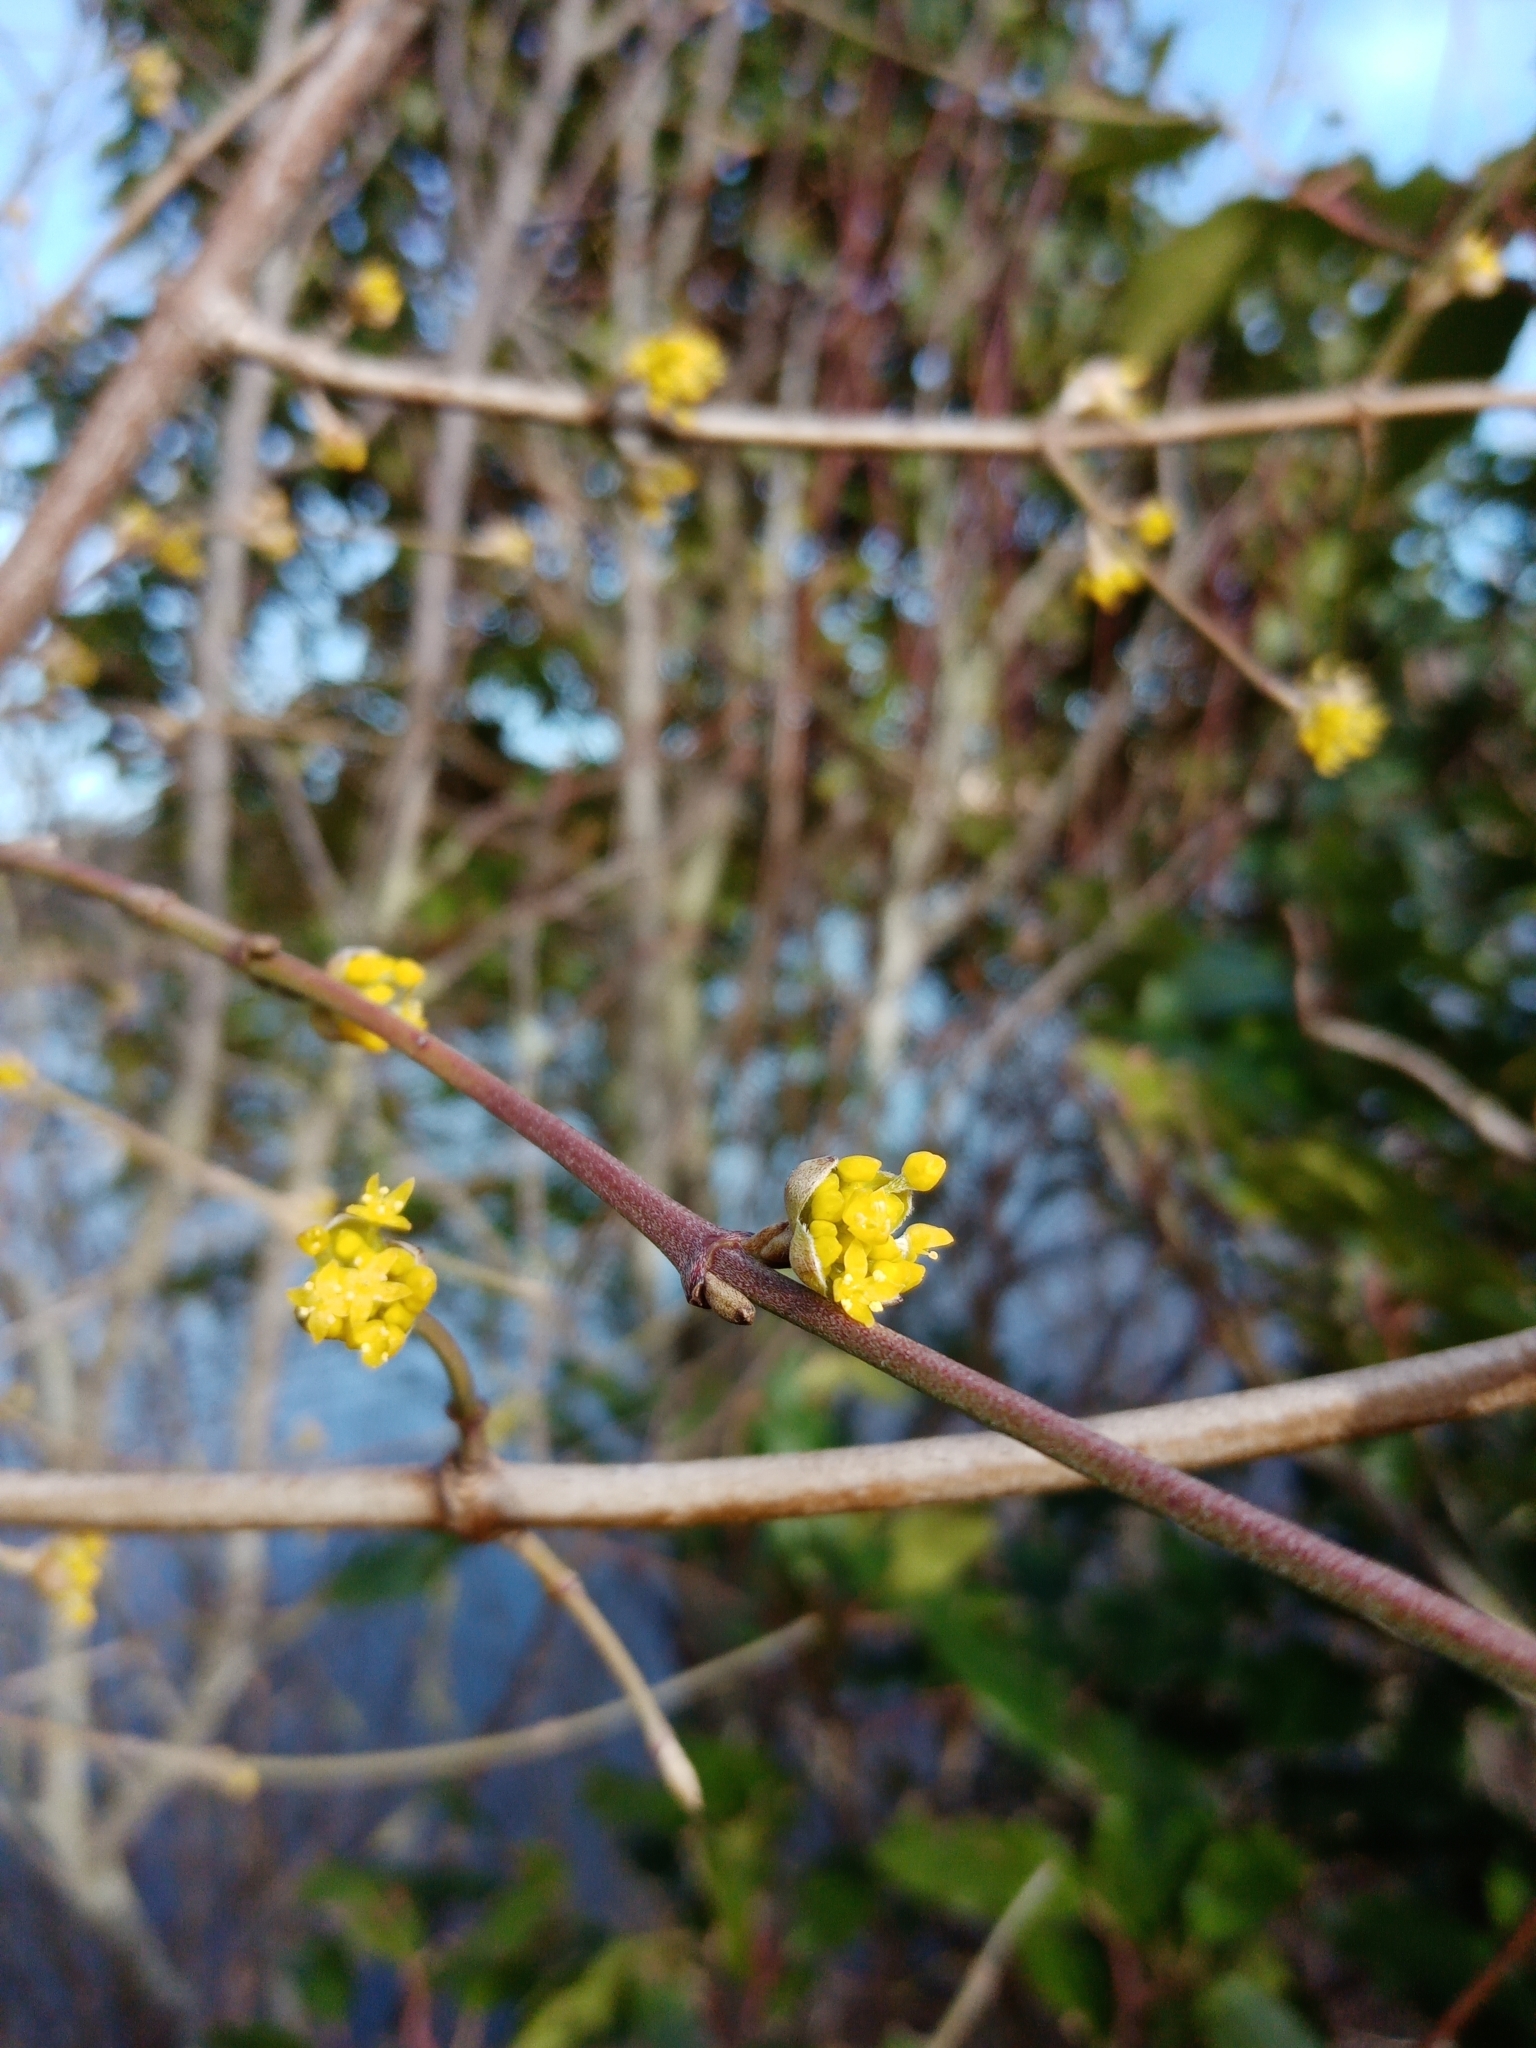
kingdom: Plantae
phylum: Tracheophyta
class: Magnoliopsida
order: Cornales
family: Cornaceae
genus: Cornus
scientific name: Cornus mas
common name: Cornelian-cherry
